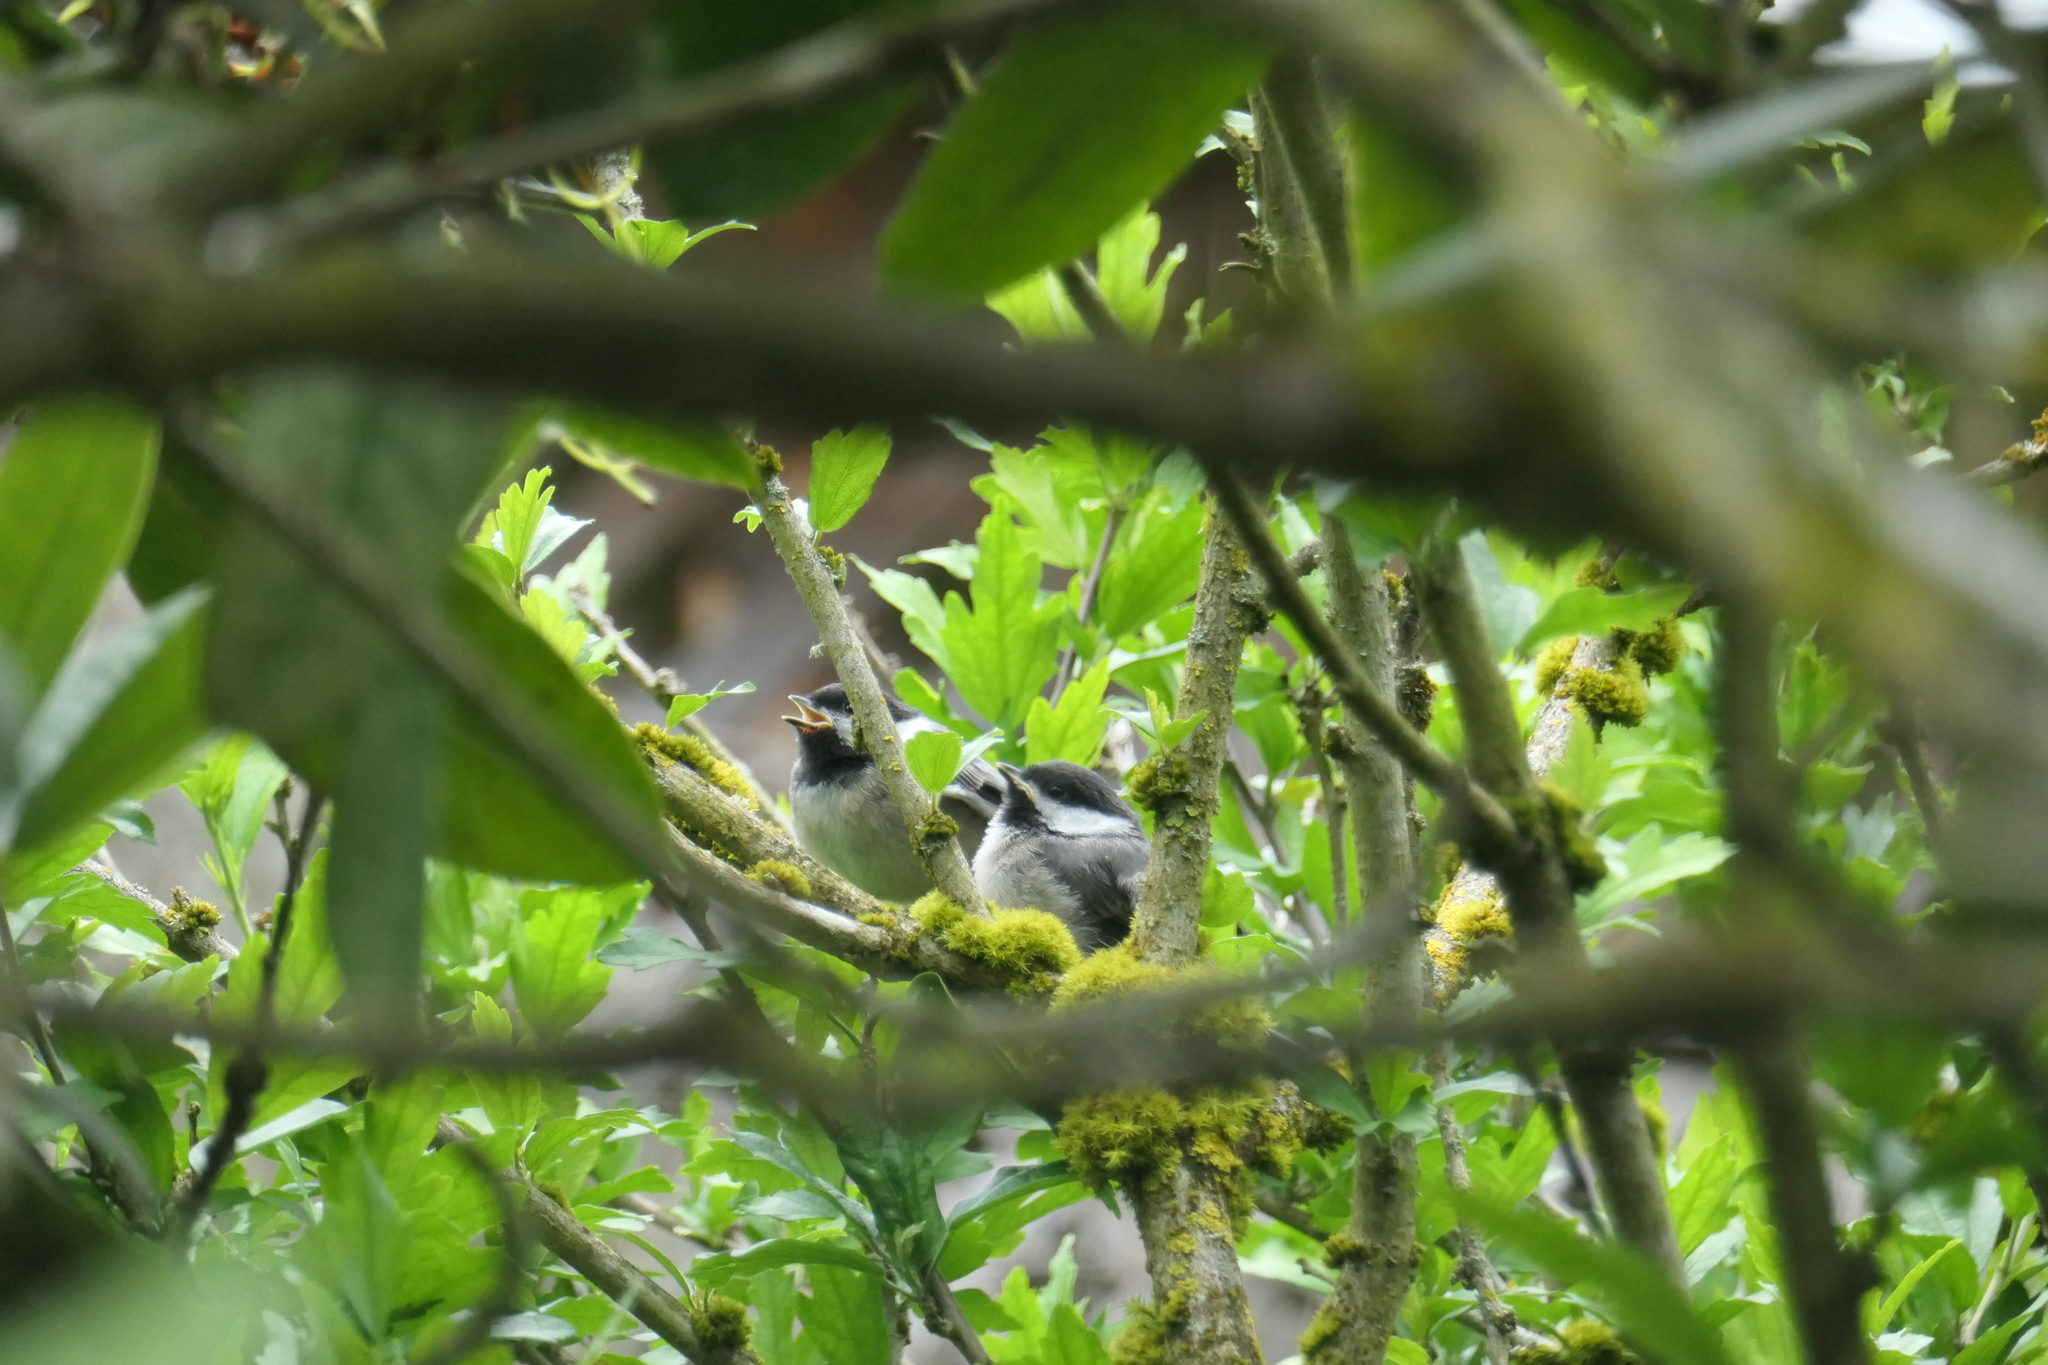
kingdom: Animalia
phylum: Chordata
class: Aves
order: Passeriformes
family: Paridae
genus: Poecile
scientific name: Poecile atricapillus
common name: Black-capped chickadee
